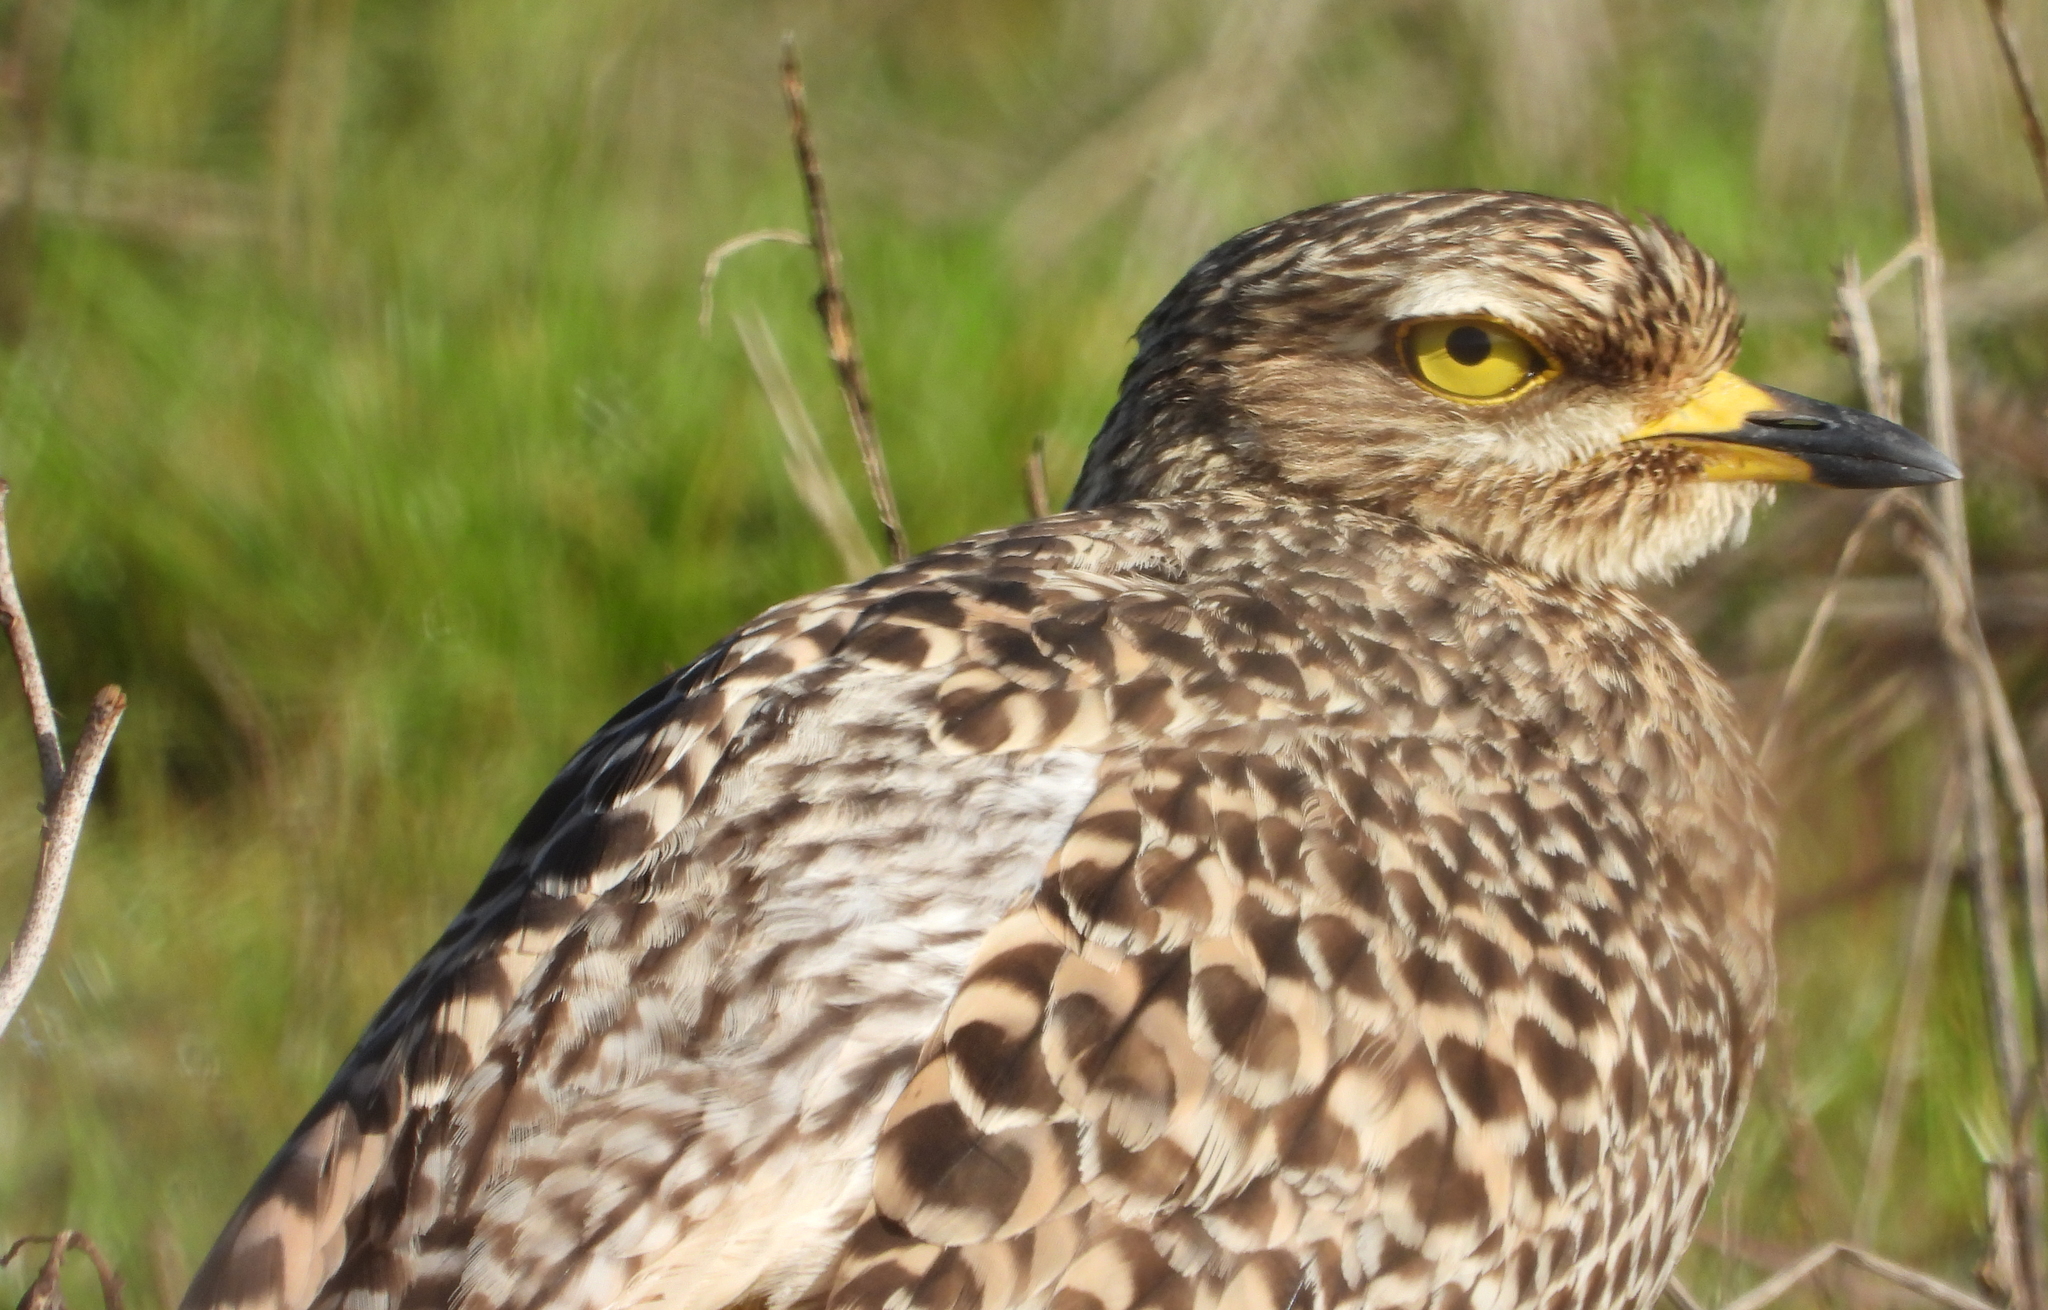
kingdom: Animalia
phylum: Chordata
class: Aves
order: Charadriiformes
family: Burhinidae
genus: Burhinus
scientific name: Burhinus capensis
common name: Spotted thick-knee
